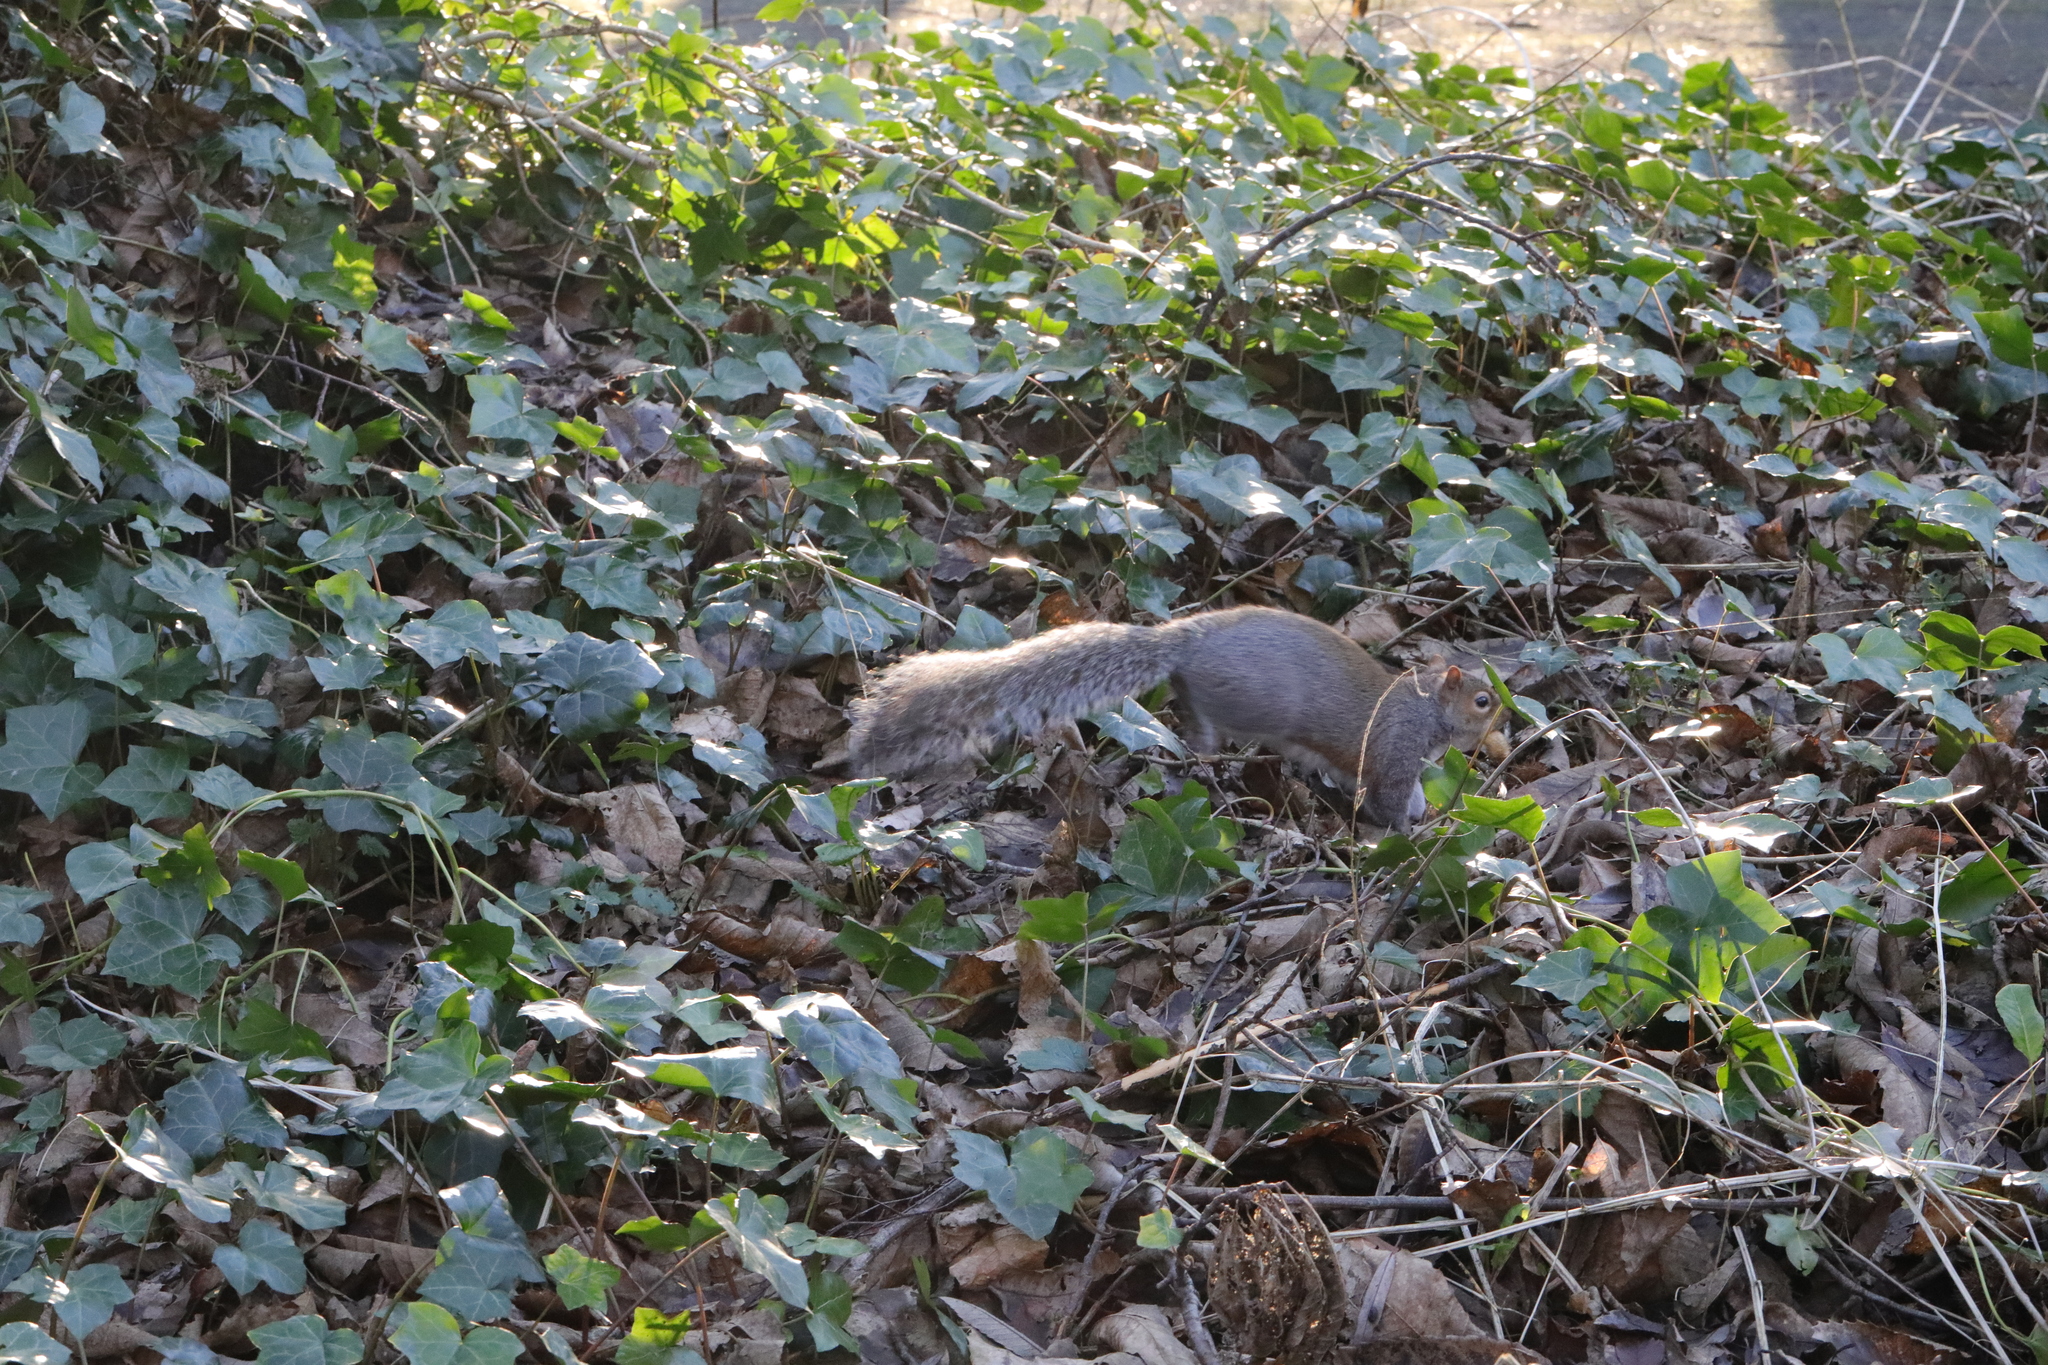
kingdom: Animalia
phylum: Chordata
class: Mammalia
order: Rodentia
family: Sciuridae
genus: Sciurus
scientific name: Sciurus carolinensis
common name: Eastern gray squirrel
